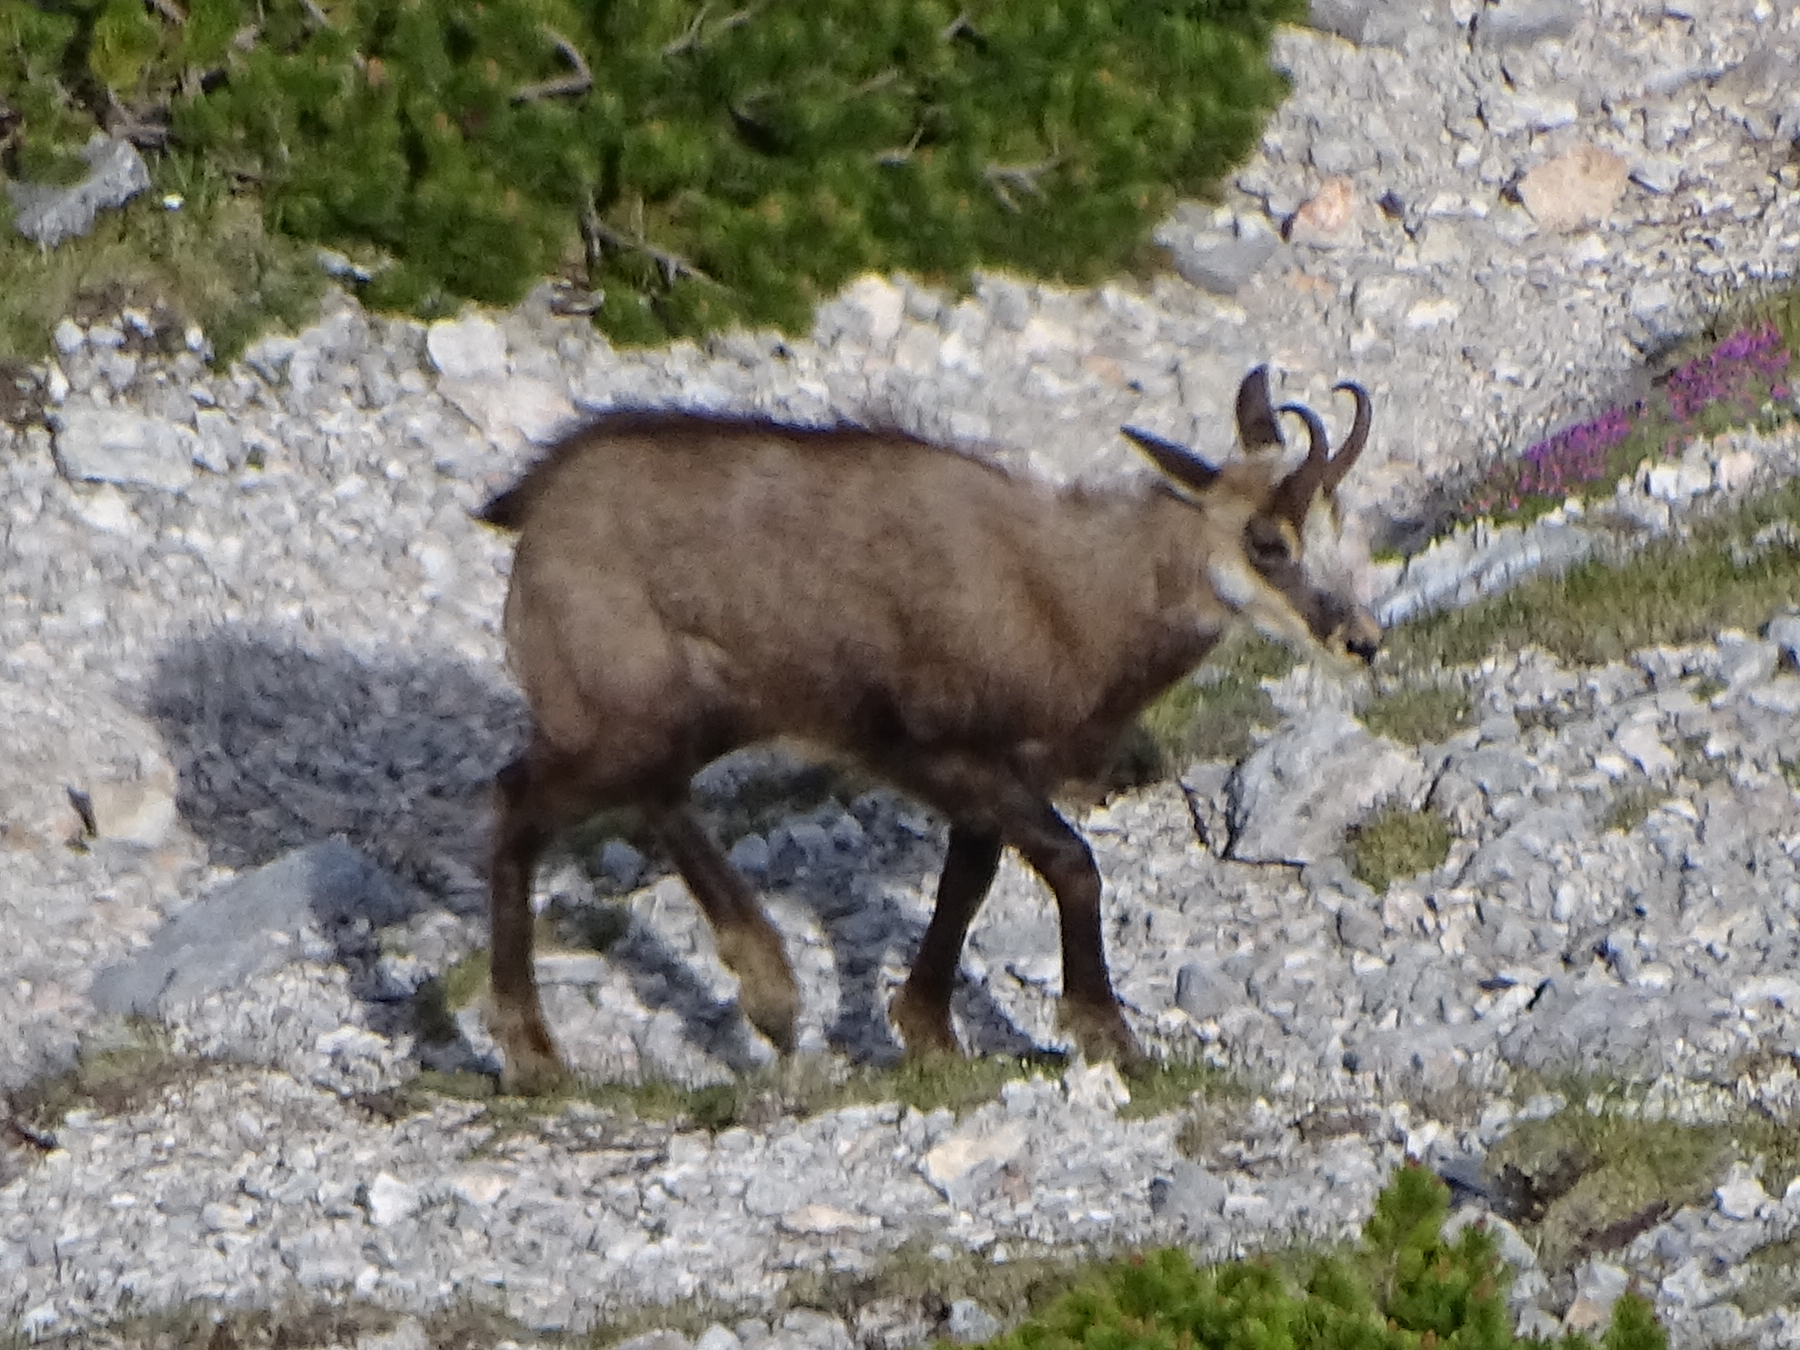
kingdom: Animalia
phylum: Chordata
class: Mammalia
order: Artiodactyla
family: Bovidae
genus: Rupicapra
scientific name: Rupicapra rupicapra
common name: Chamois
